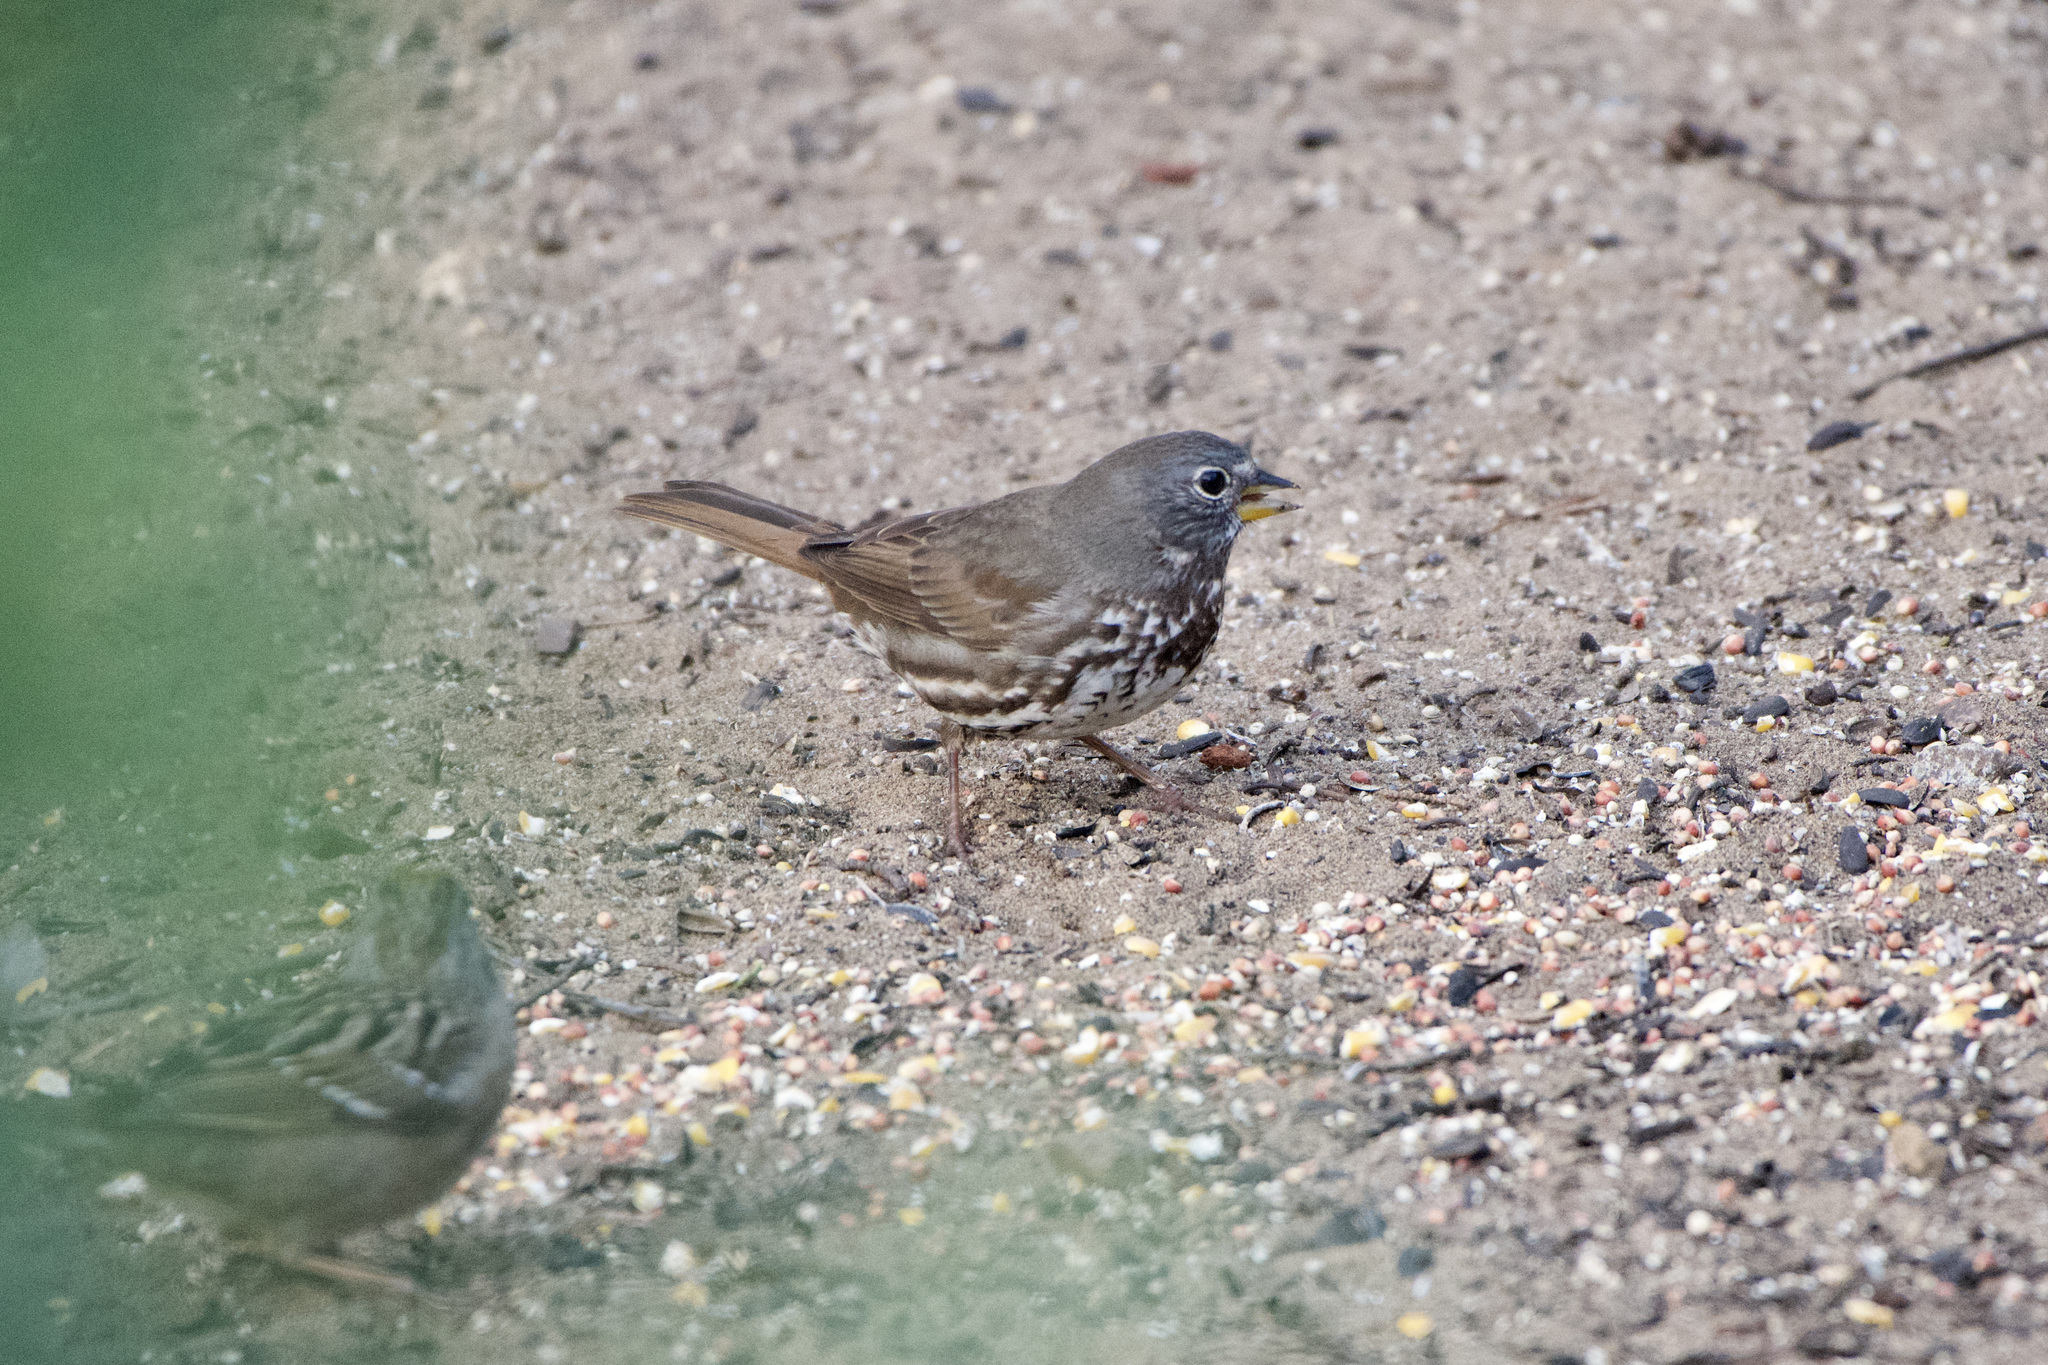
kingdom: Animalia
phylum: Chordata
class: Aves
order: Passeriformes
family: Passerellidae
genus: Passerella
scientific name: Passerella iliaca
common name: Fox sparrow
